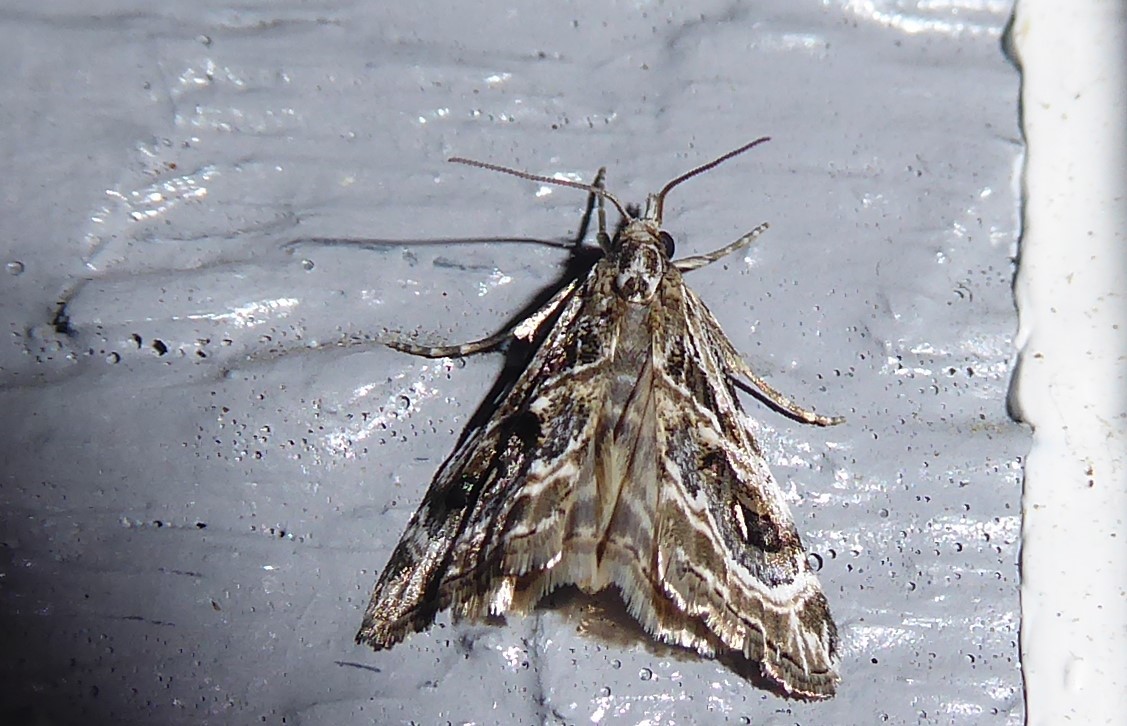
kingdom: Animalia
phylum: Arthropoda
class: Insecta
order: Lepidoptera
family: Crambidae
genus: Gadira
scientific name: Gadira acerella
